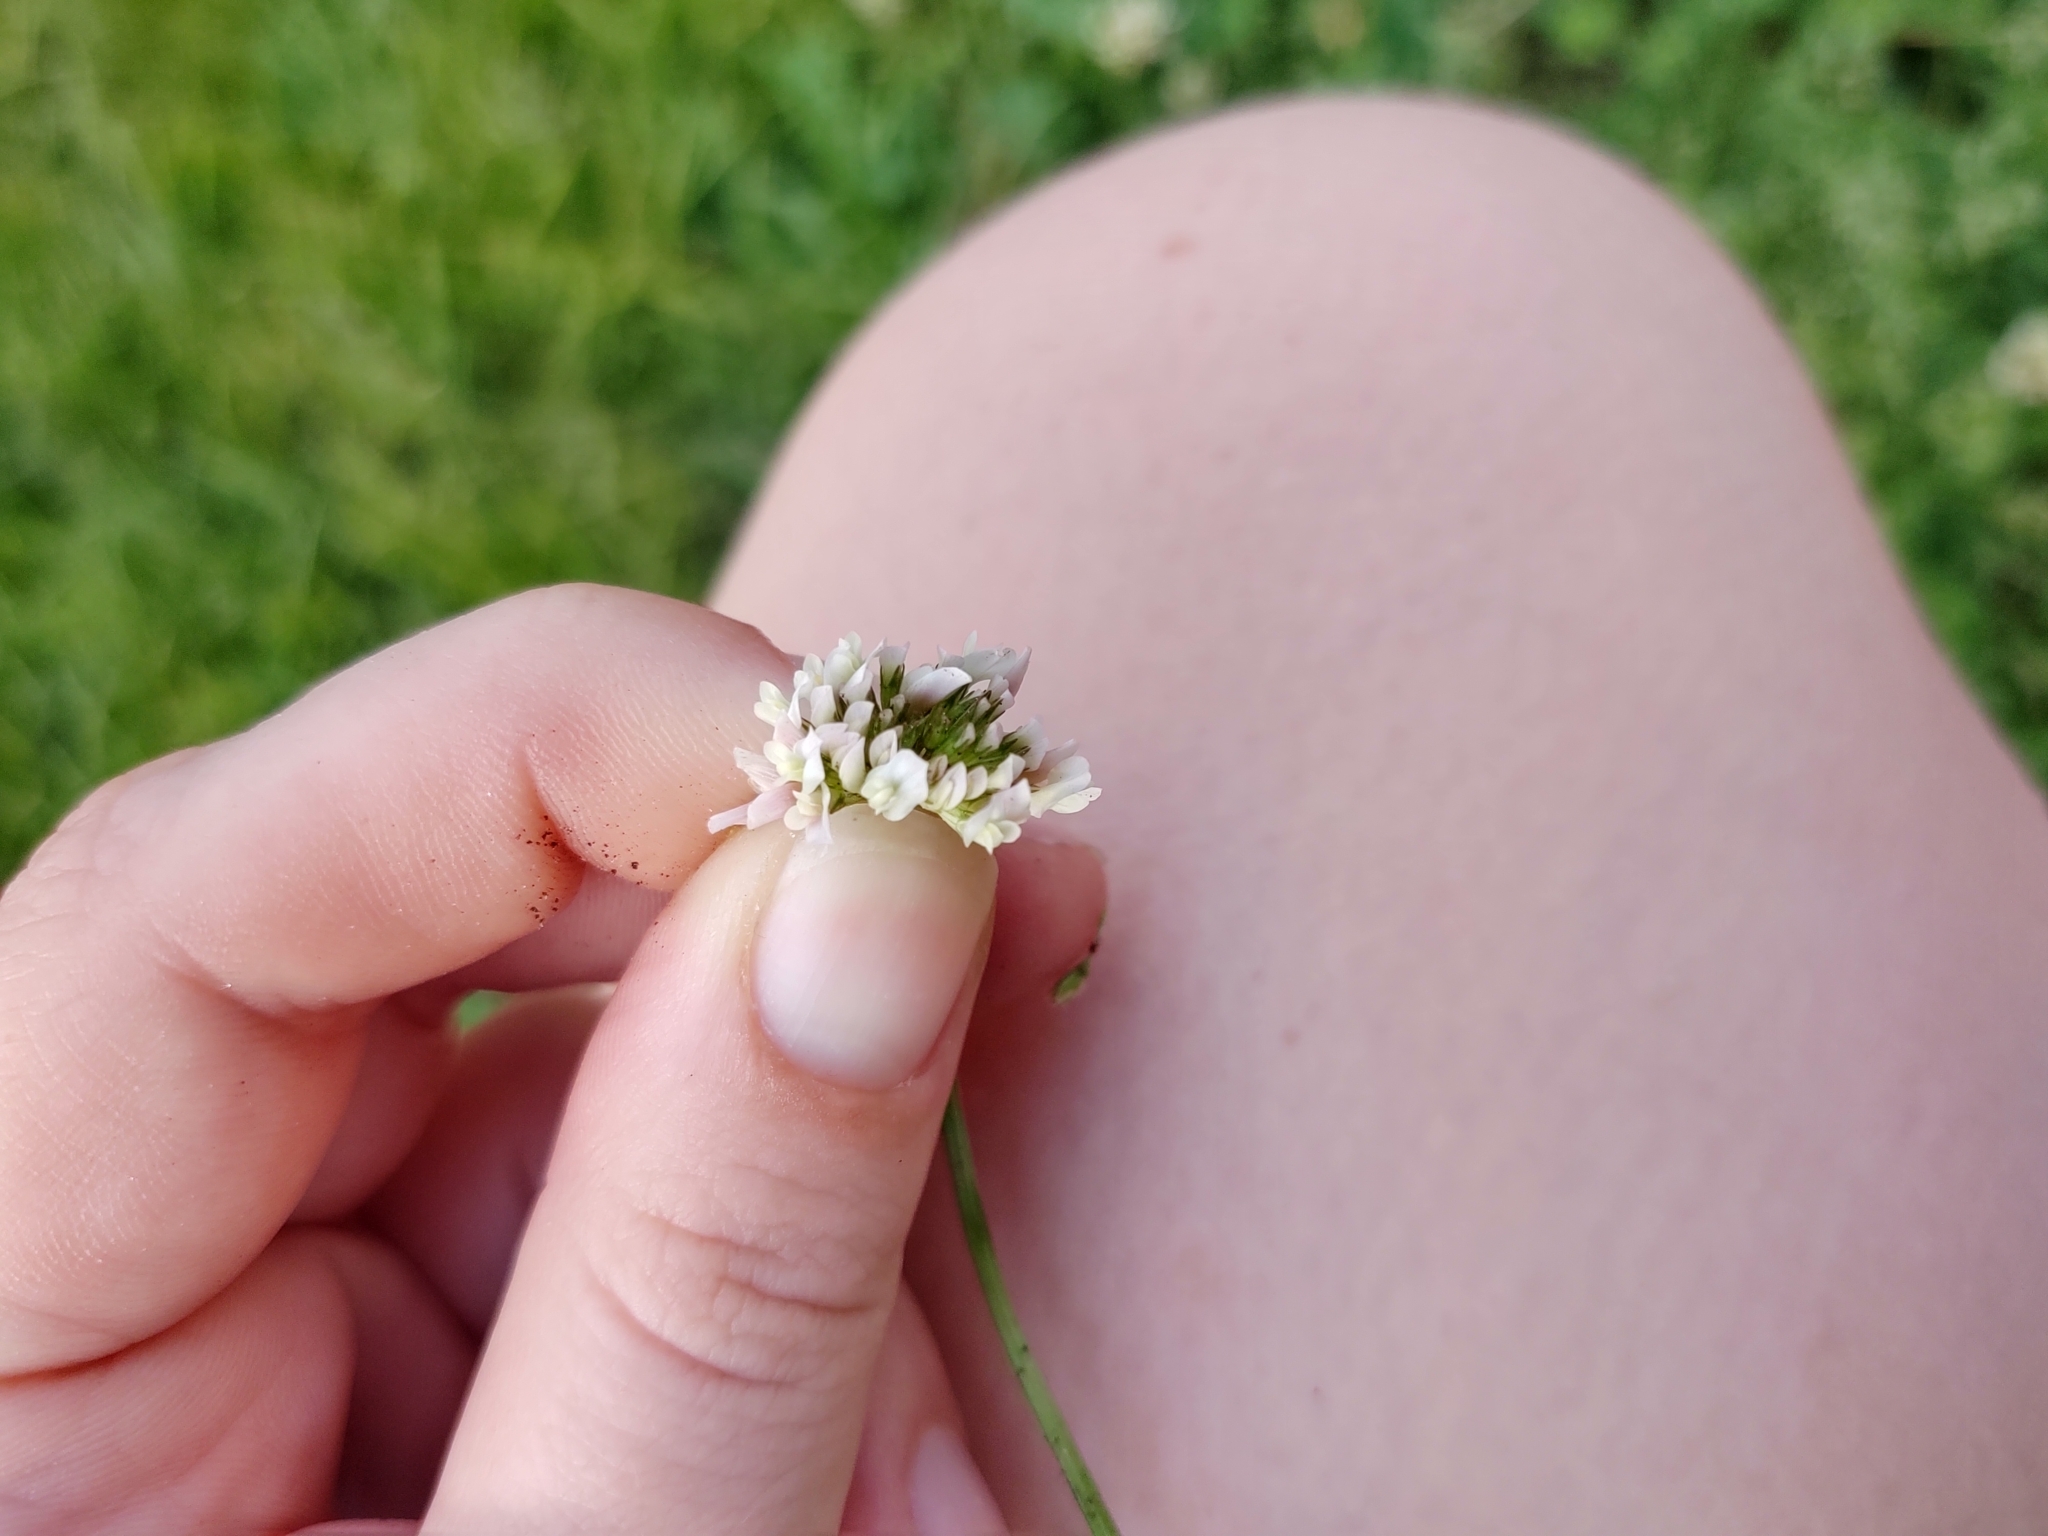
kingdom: Plantae
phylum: Tracheophyta
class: Magnoliopsida
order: Fabales
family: Fabaceae
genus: Trifolium
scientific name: Trifolium repens
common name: White clover
